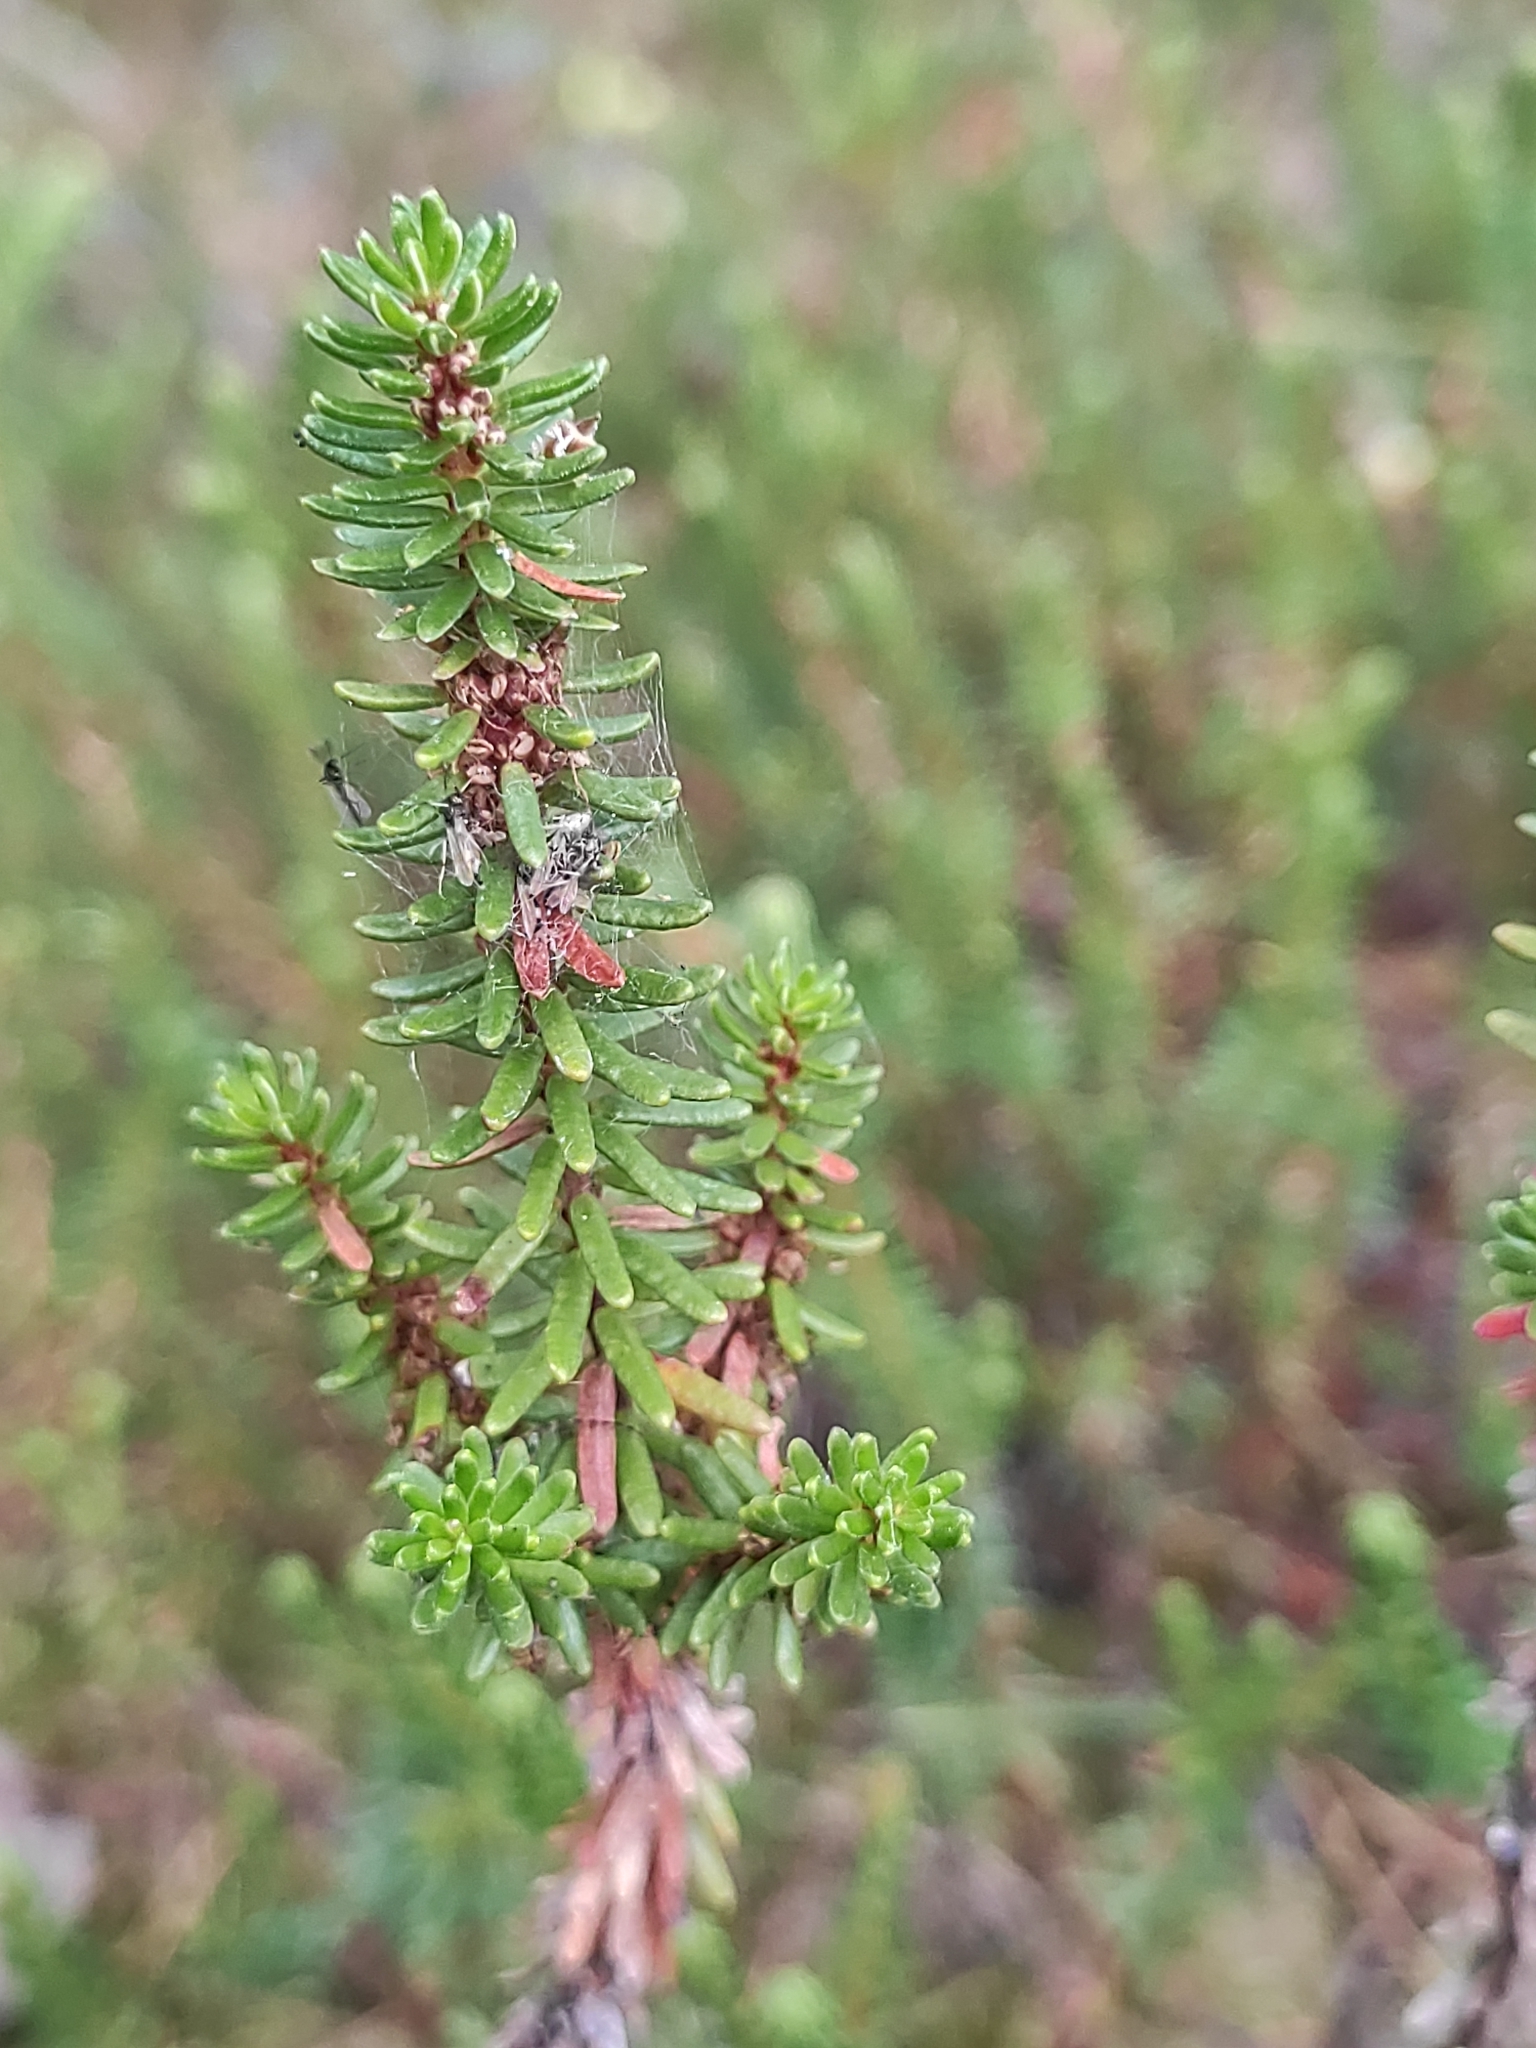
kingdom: Plantae
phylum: Tracheophyta
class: Magnoliopsida
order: Ericales
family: Ericaceae
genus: Empetrum
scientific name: Empetrum nigrum
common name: Black crowberry
